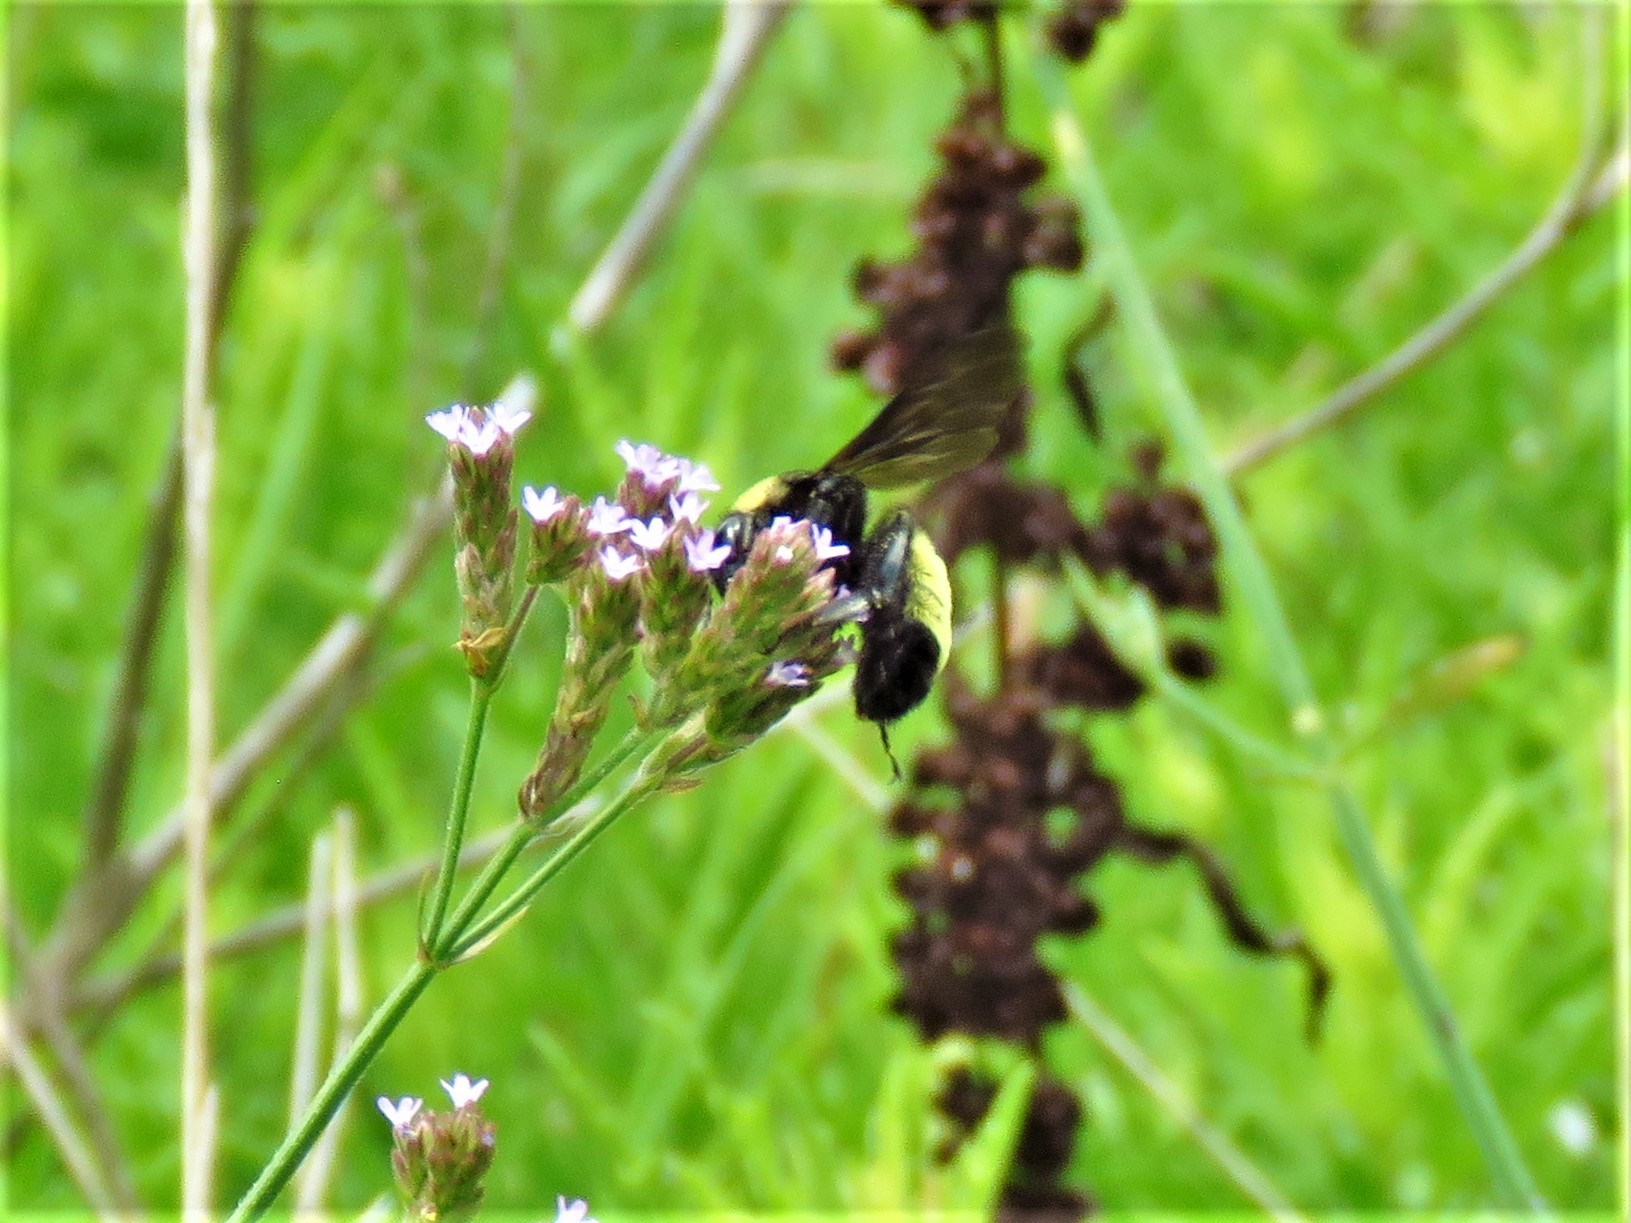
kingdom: Animalia
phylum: Arthropoda
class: Insecta
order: Hymenoptera
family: Apidae
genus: Bombus
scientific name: Bombus pensylvanicus
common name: Bumble bee
